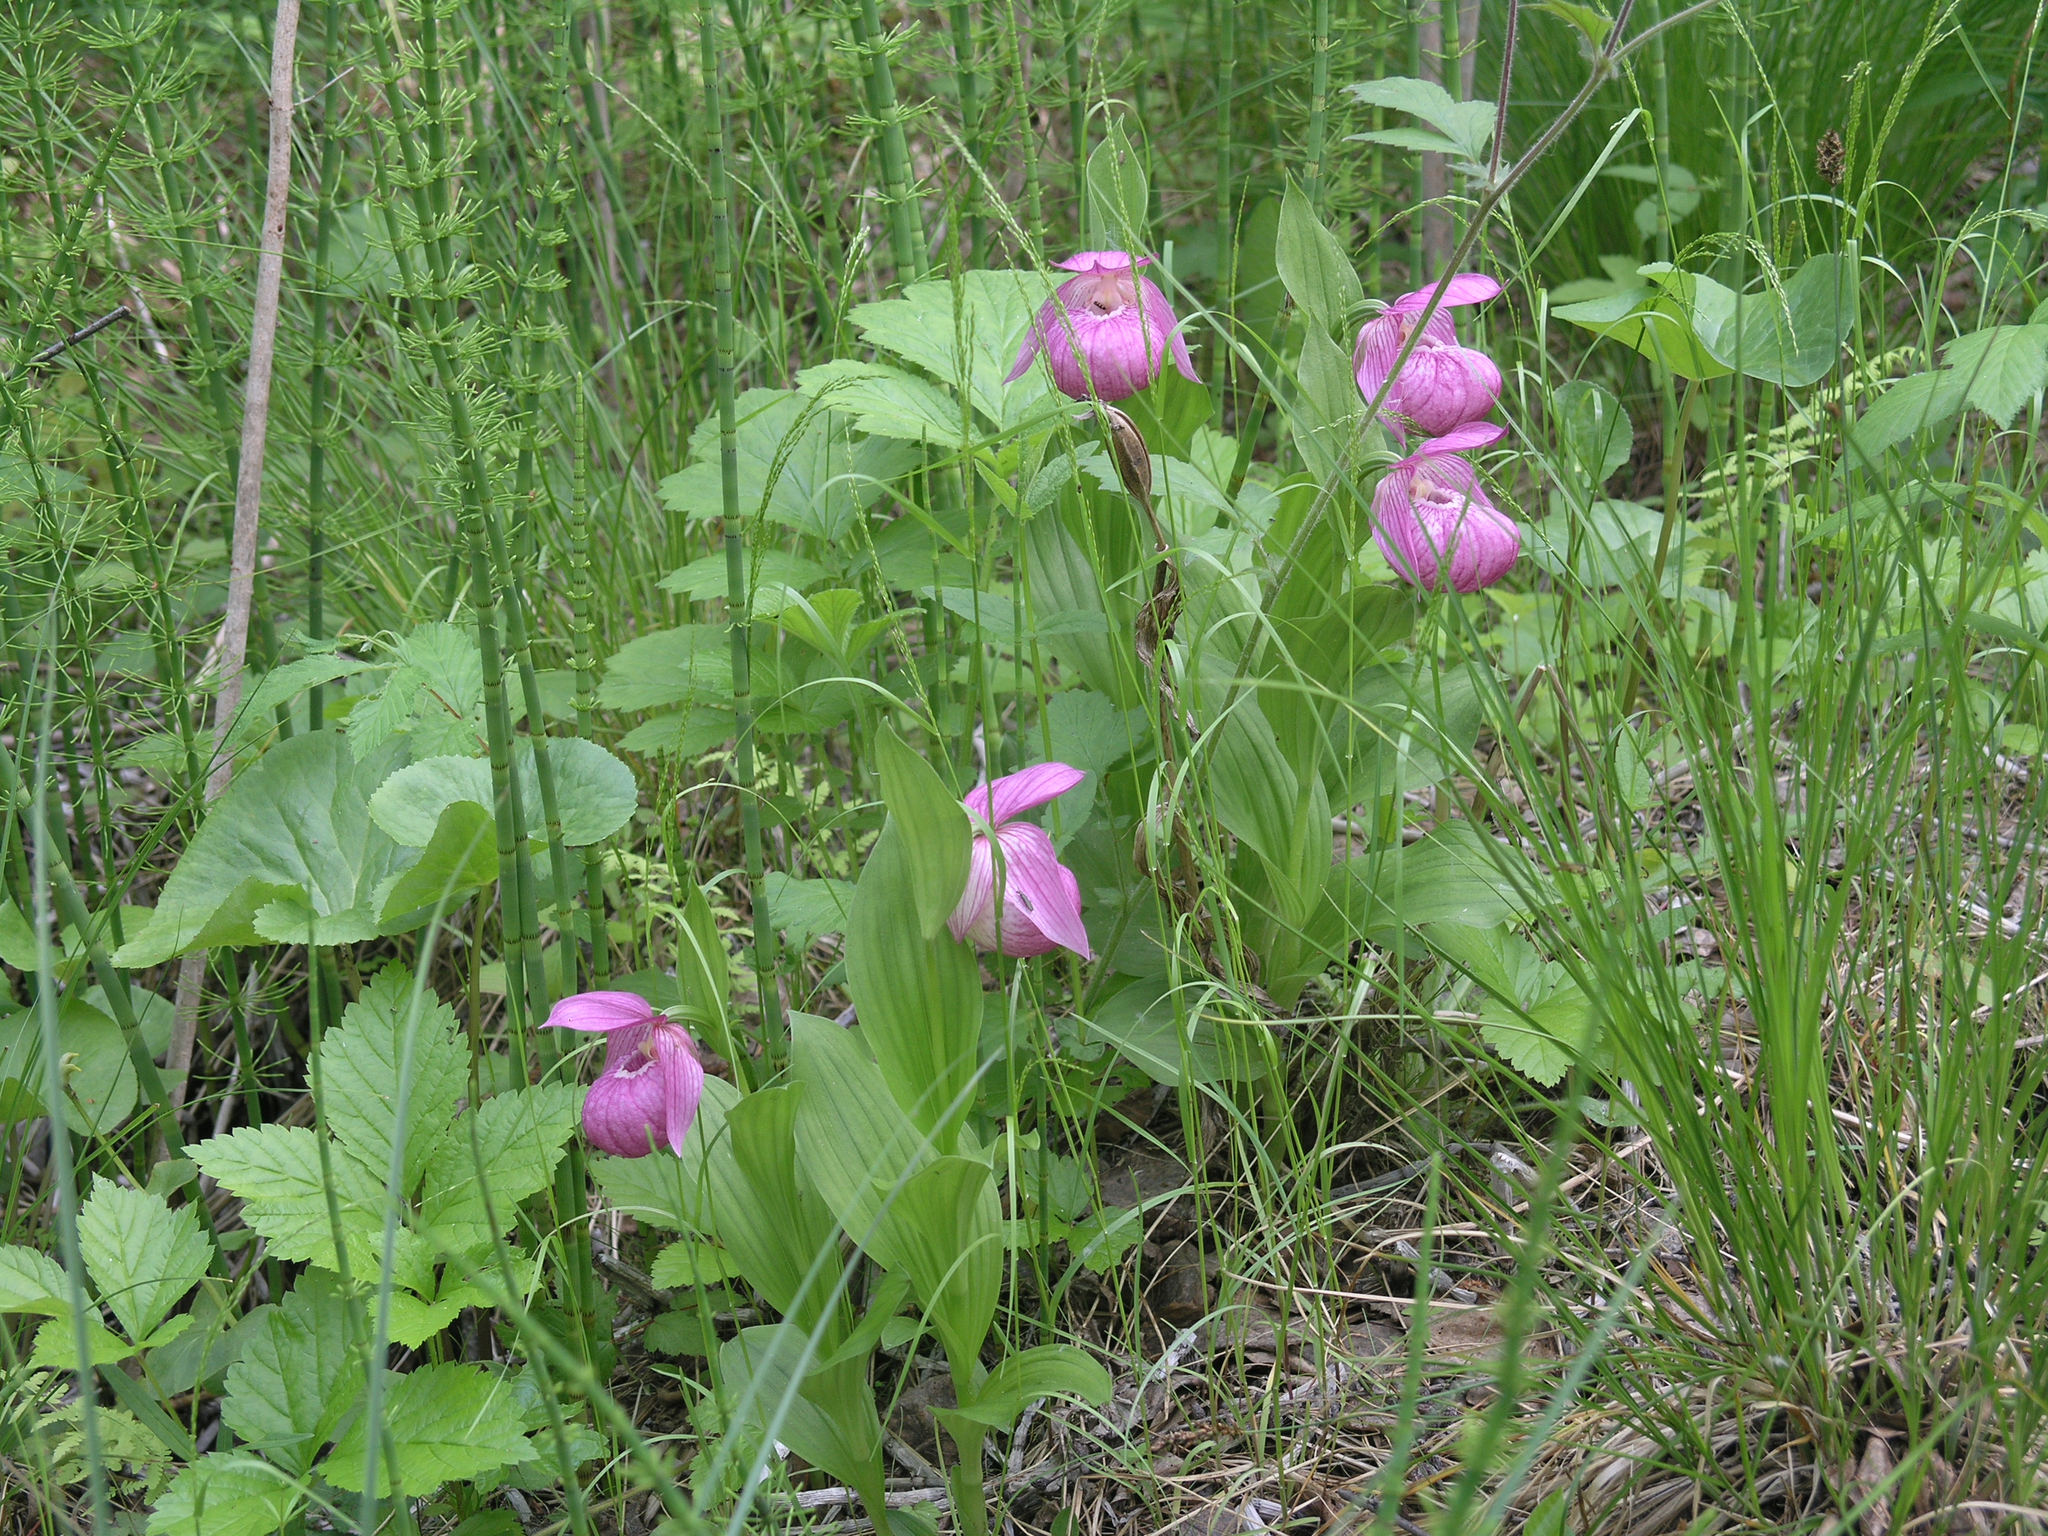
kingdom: Plantae
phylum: Tracheophyta
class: Liliopsida
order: Asparagales
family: Orchidaceae
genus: Cypripedium
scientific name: Cypripedium macranthos
